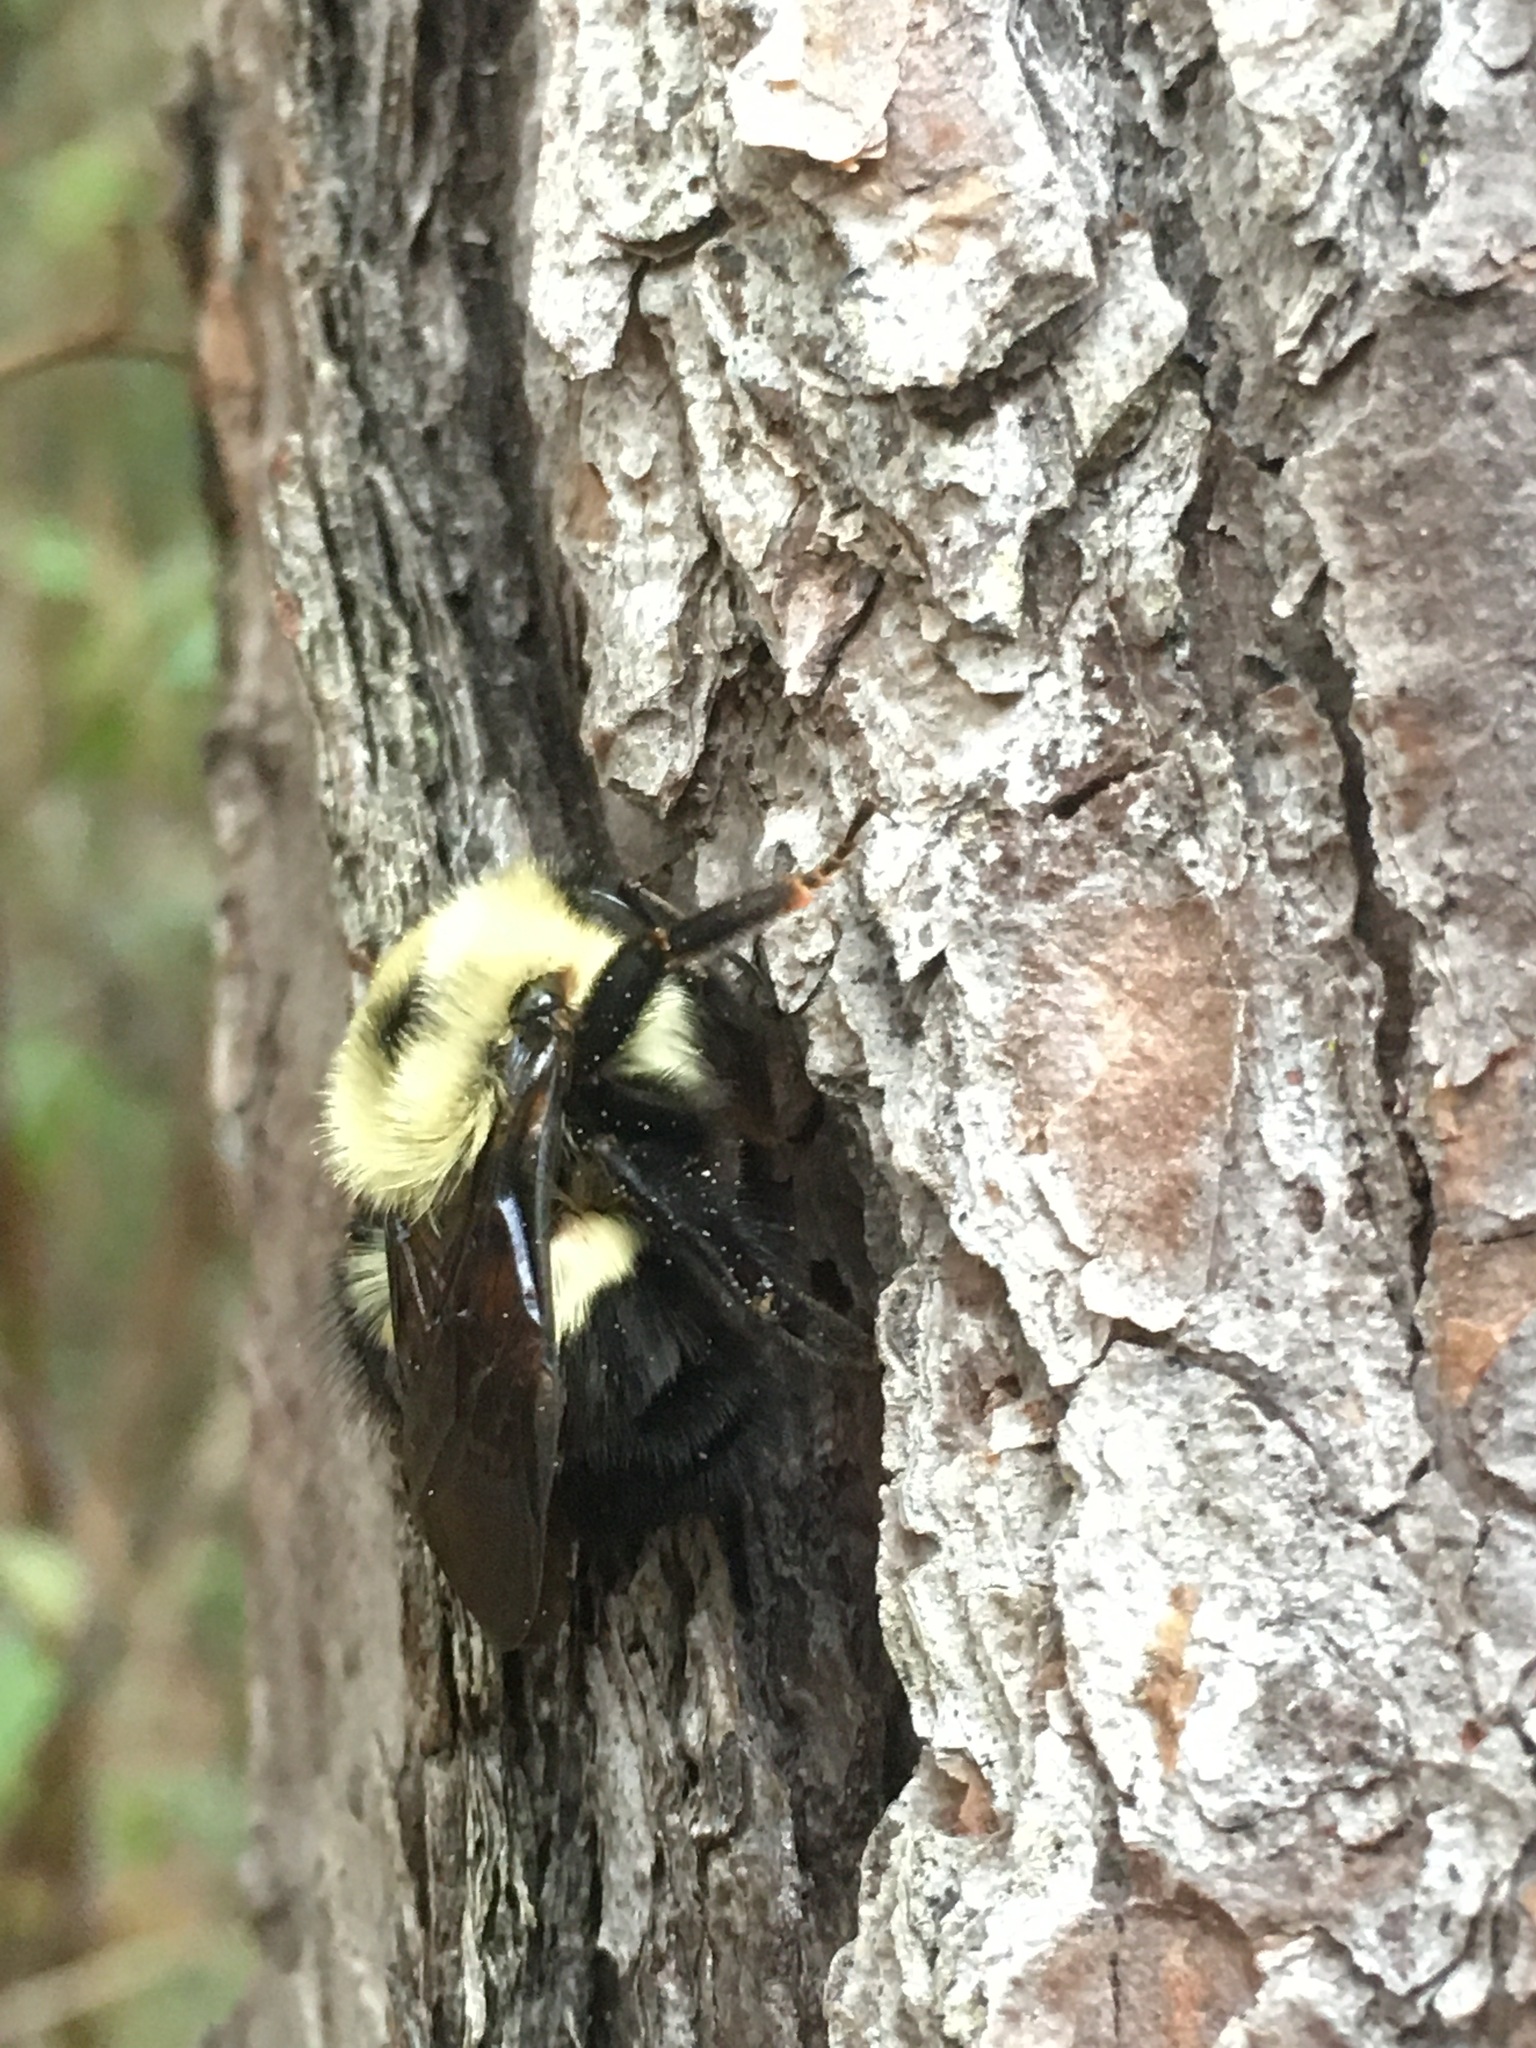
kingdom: Animalia
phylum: Arthropoda
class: Insecta
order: Hymenoptera
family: Apidae
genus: Bombus
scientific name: Bombus bimaculatus
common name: Two-spotted bumble bee
